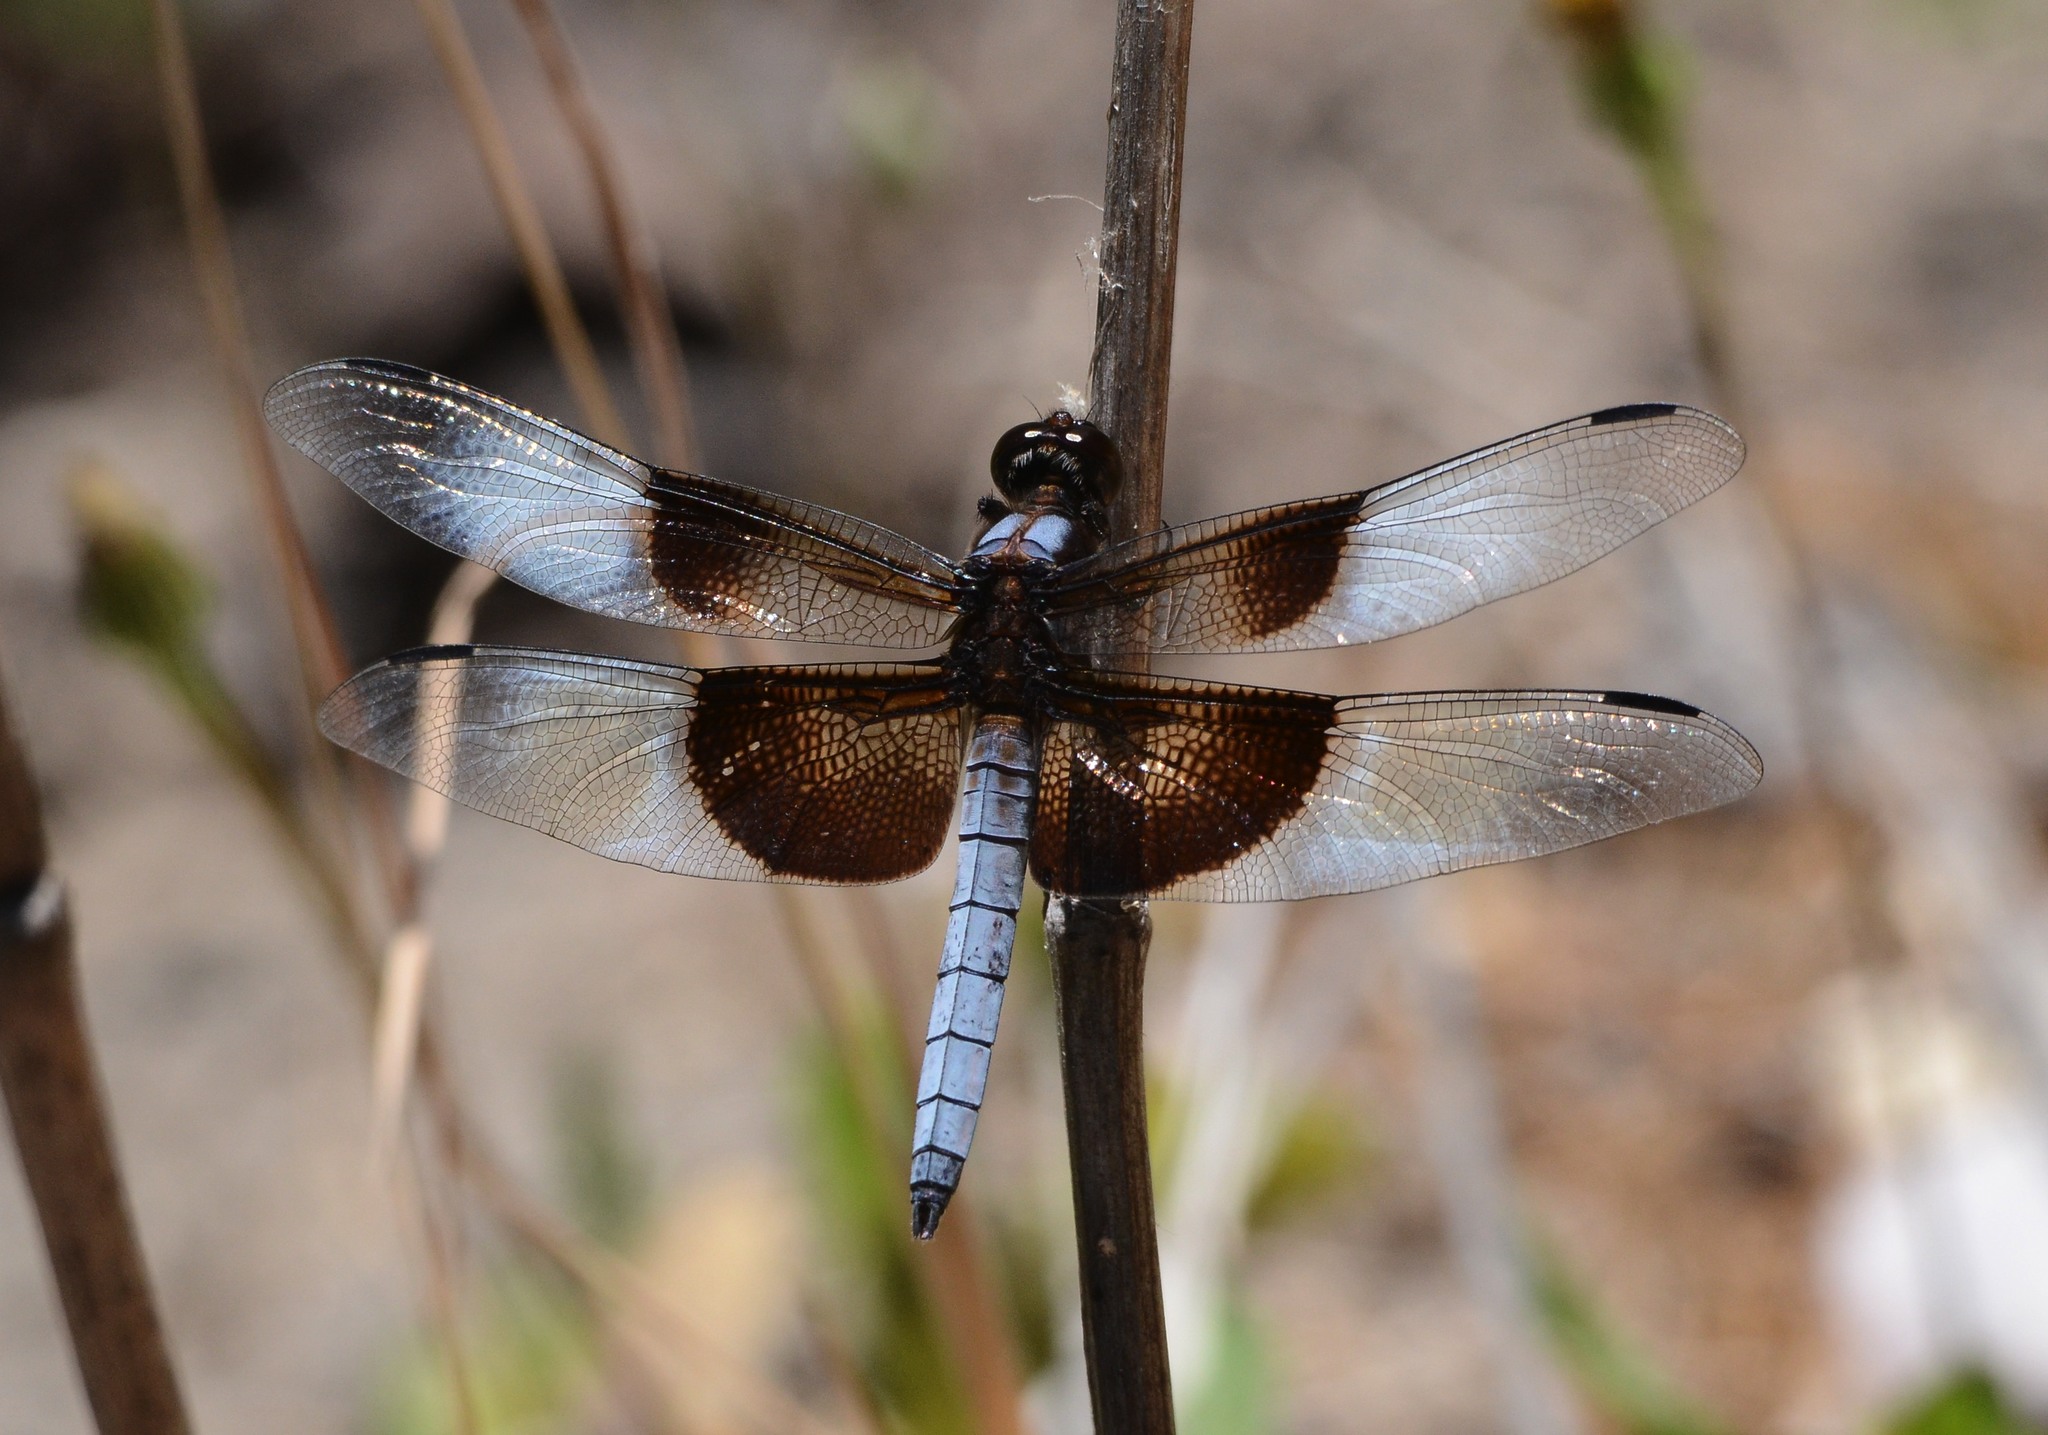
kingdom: Animalia
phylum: Arthropoda
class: Insecta
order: Odonata
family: Libellulidae
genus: Libellula
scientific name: Libellula luctuosa
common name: Widow skimmer
